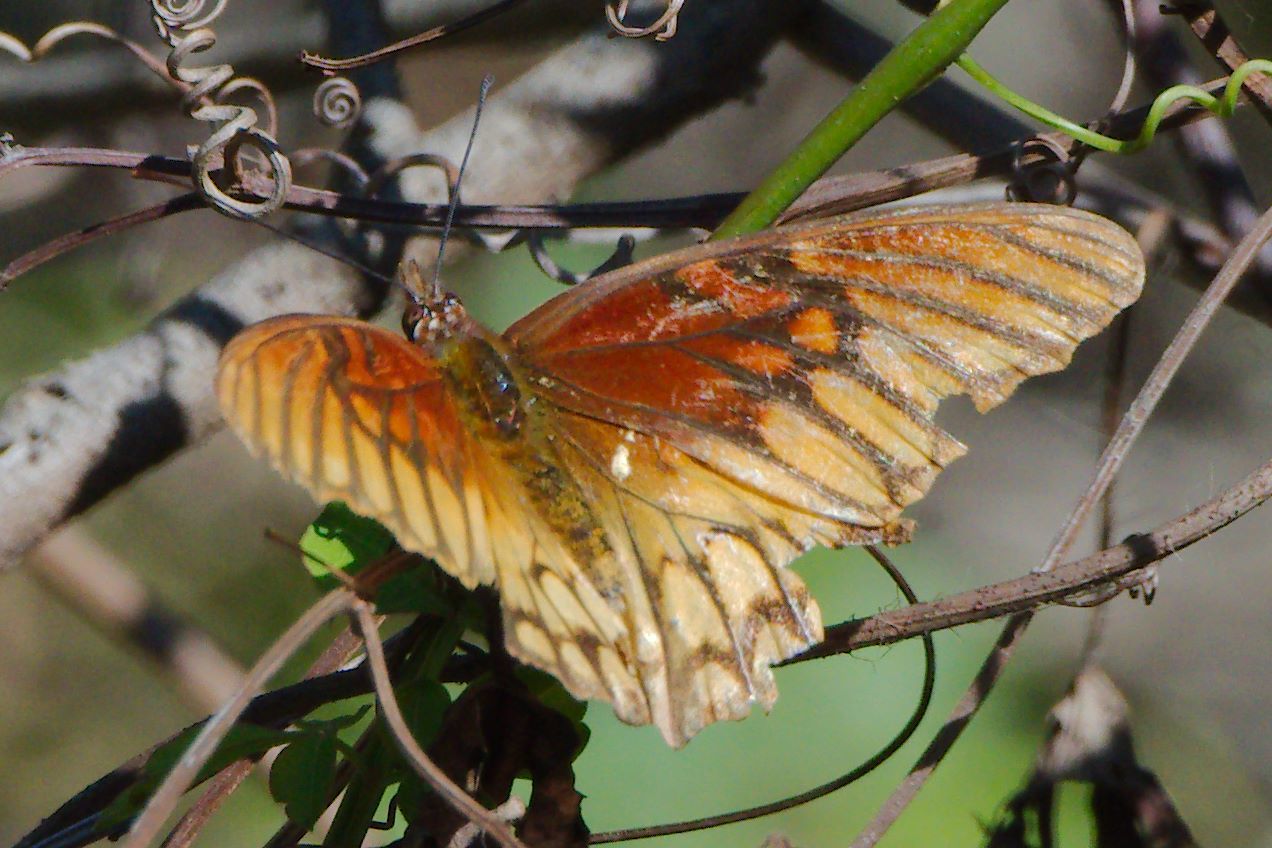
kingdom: Animalia
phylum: Arthropoda
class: Insecta
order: Lepidoptera
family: Nymphalidae
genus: Dione
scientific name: Dione moneta
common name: Mexican silverspot
